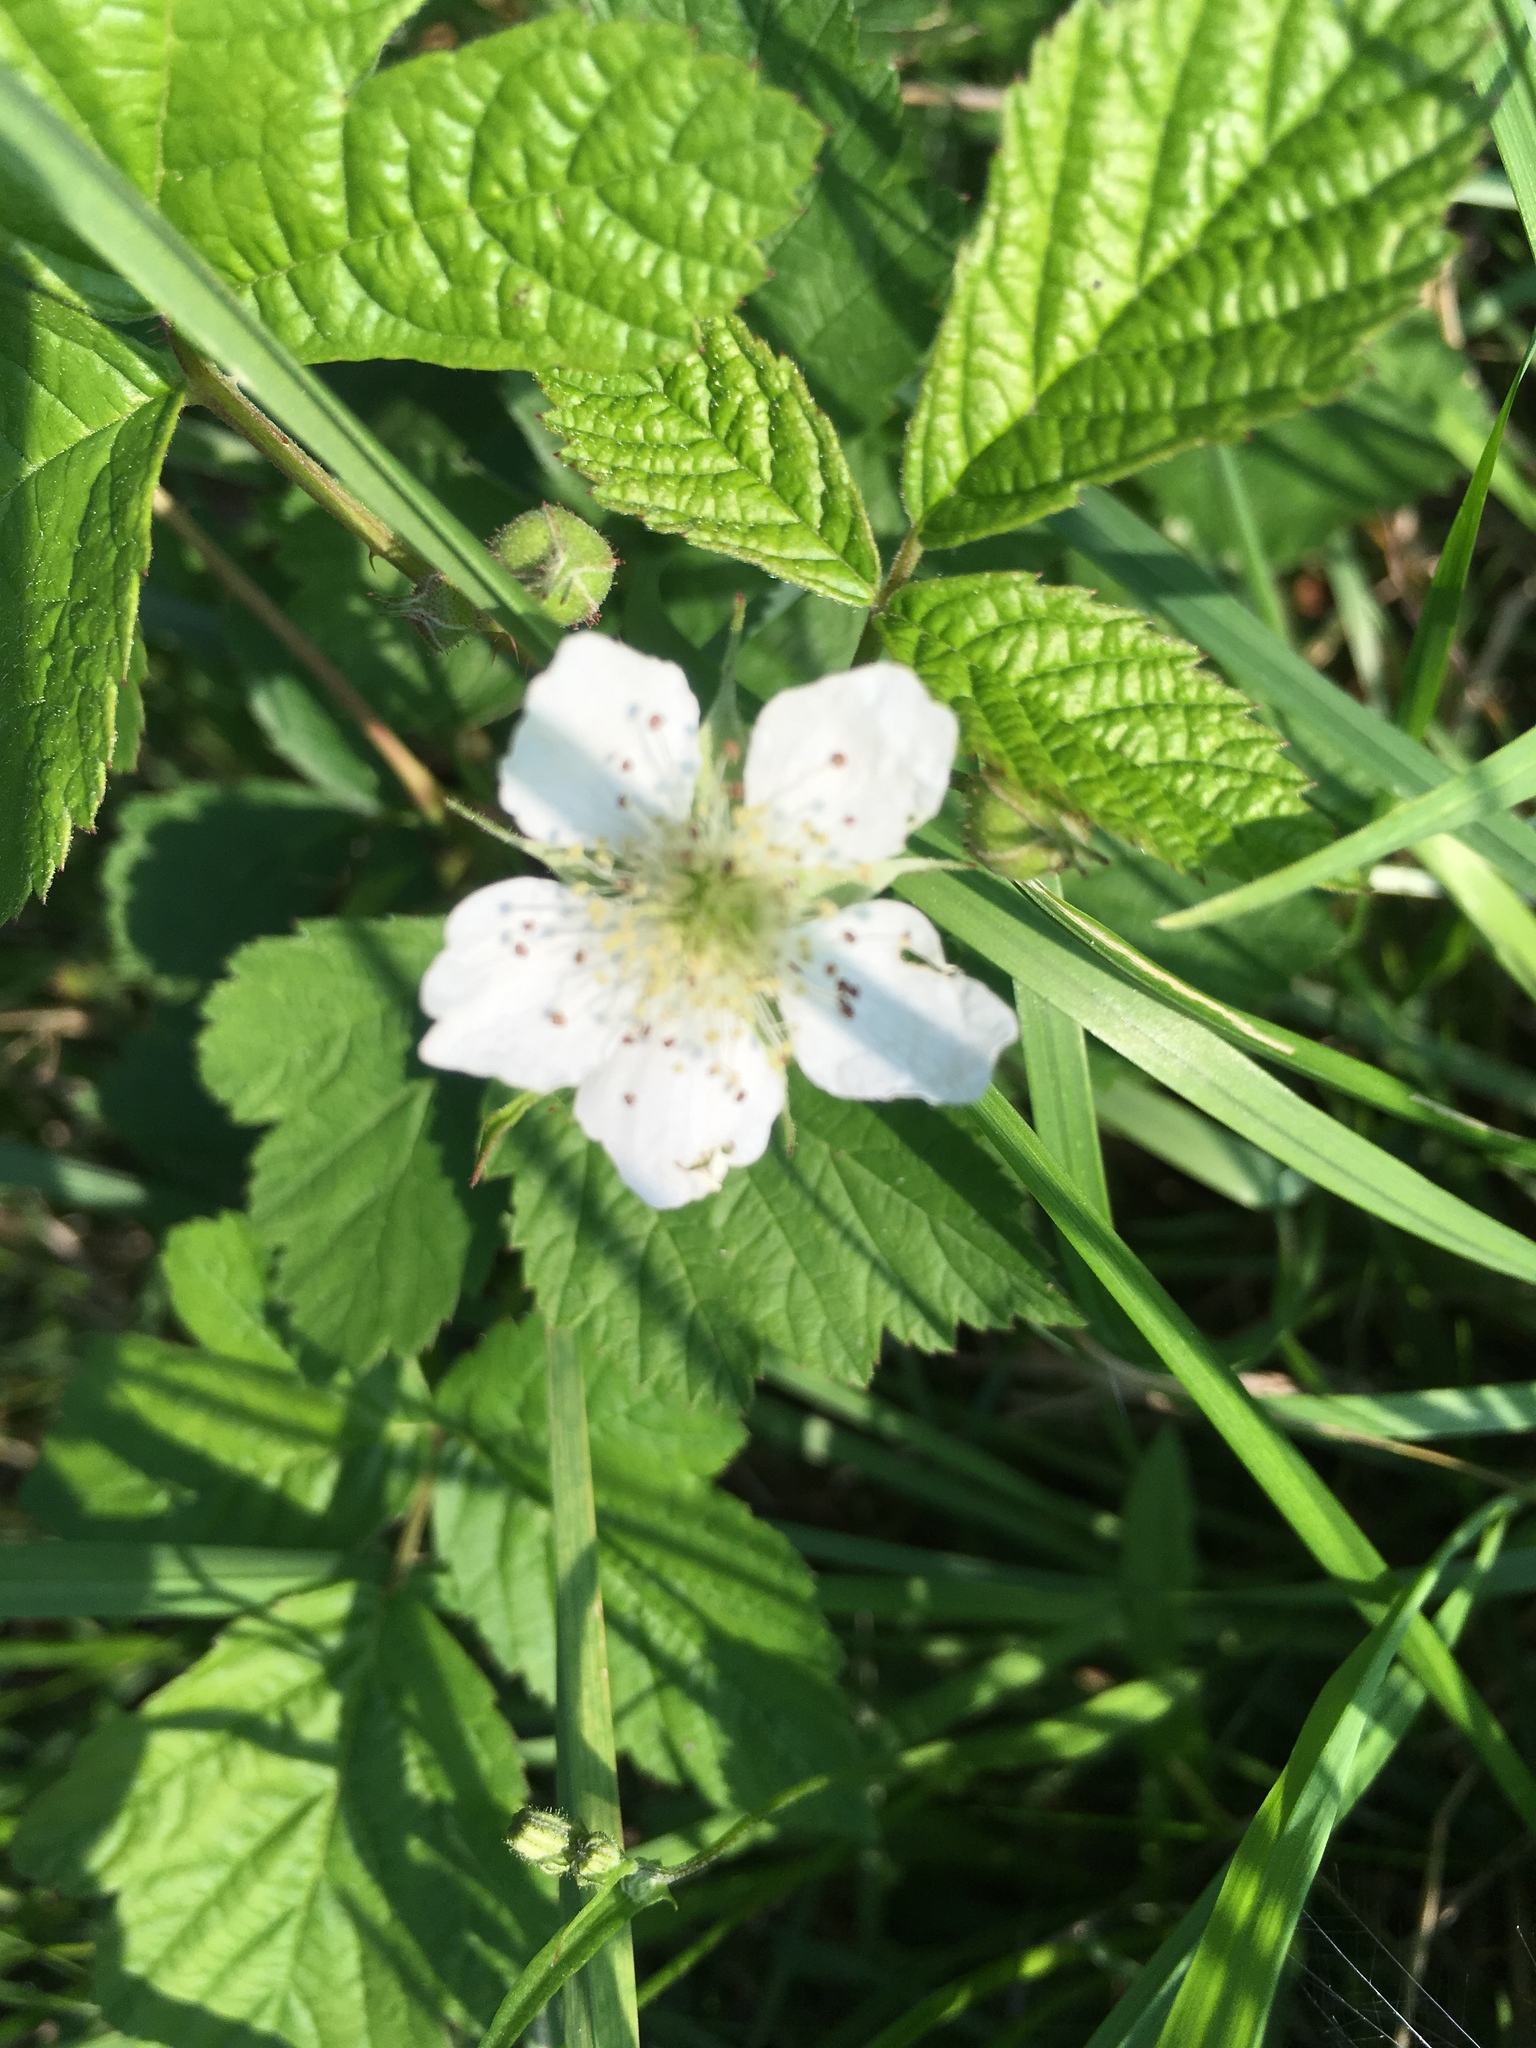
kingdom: Plantae
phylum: Tracheophyta
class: Magnoliopsida
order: Rosales
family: Rosaceae
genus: Rubus
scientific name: Rubus caesius
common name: Dewberry
